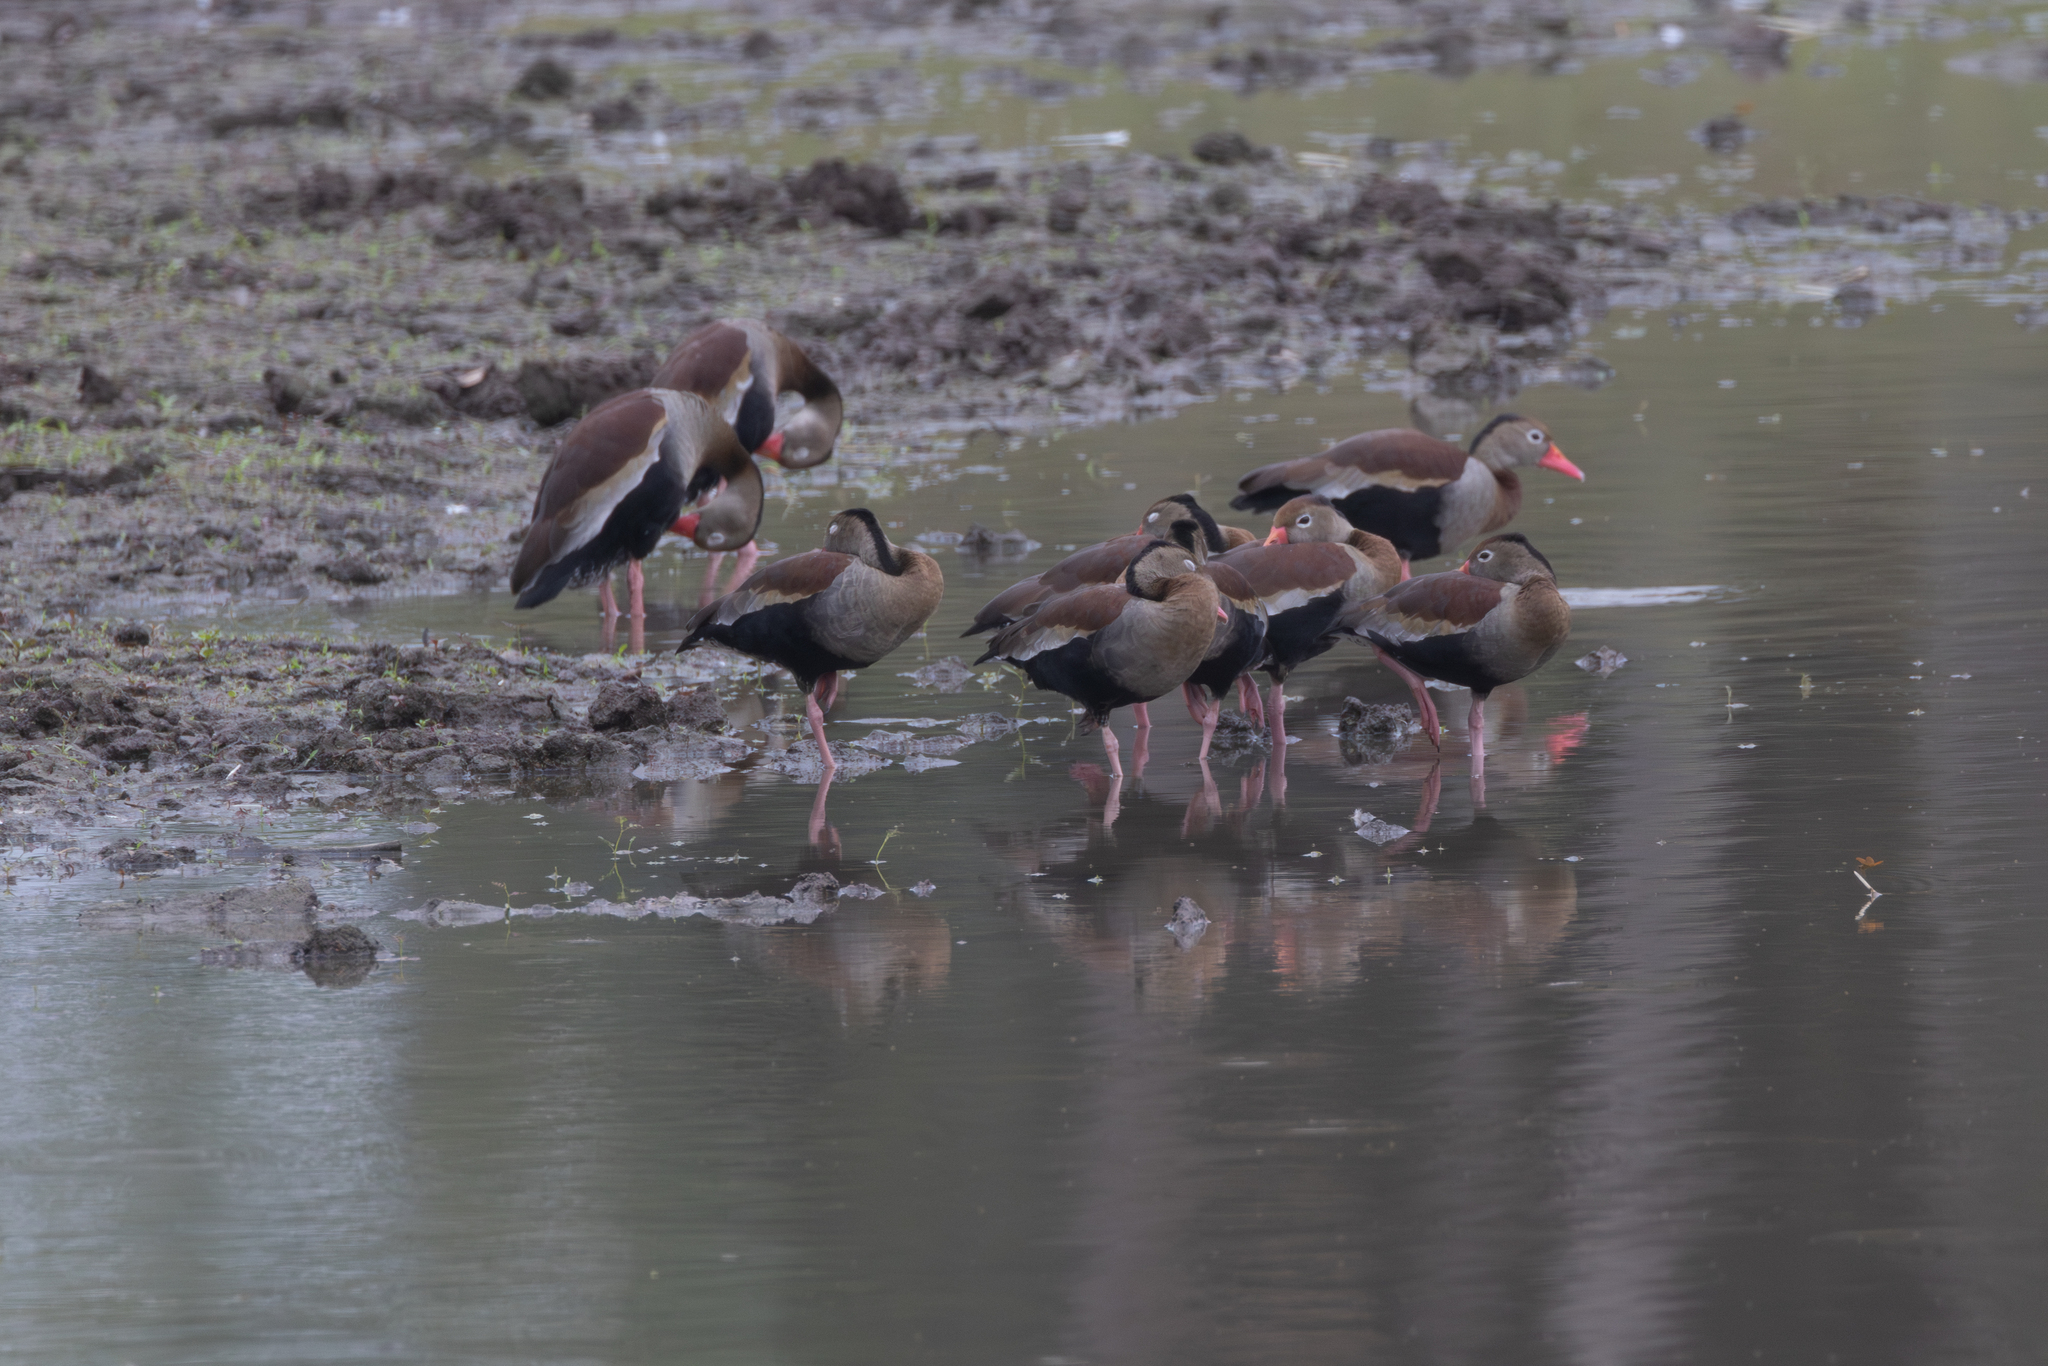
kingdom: Animalia
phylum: Chordata
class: Aves
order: Anseriformes
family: Anatidae
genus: Dendrocygna
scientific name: Dendrocygna autumnalis
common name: Black-bellied whistling duck
